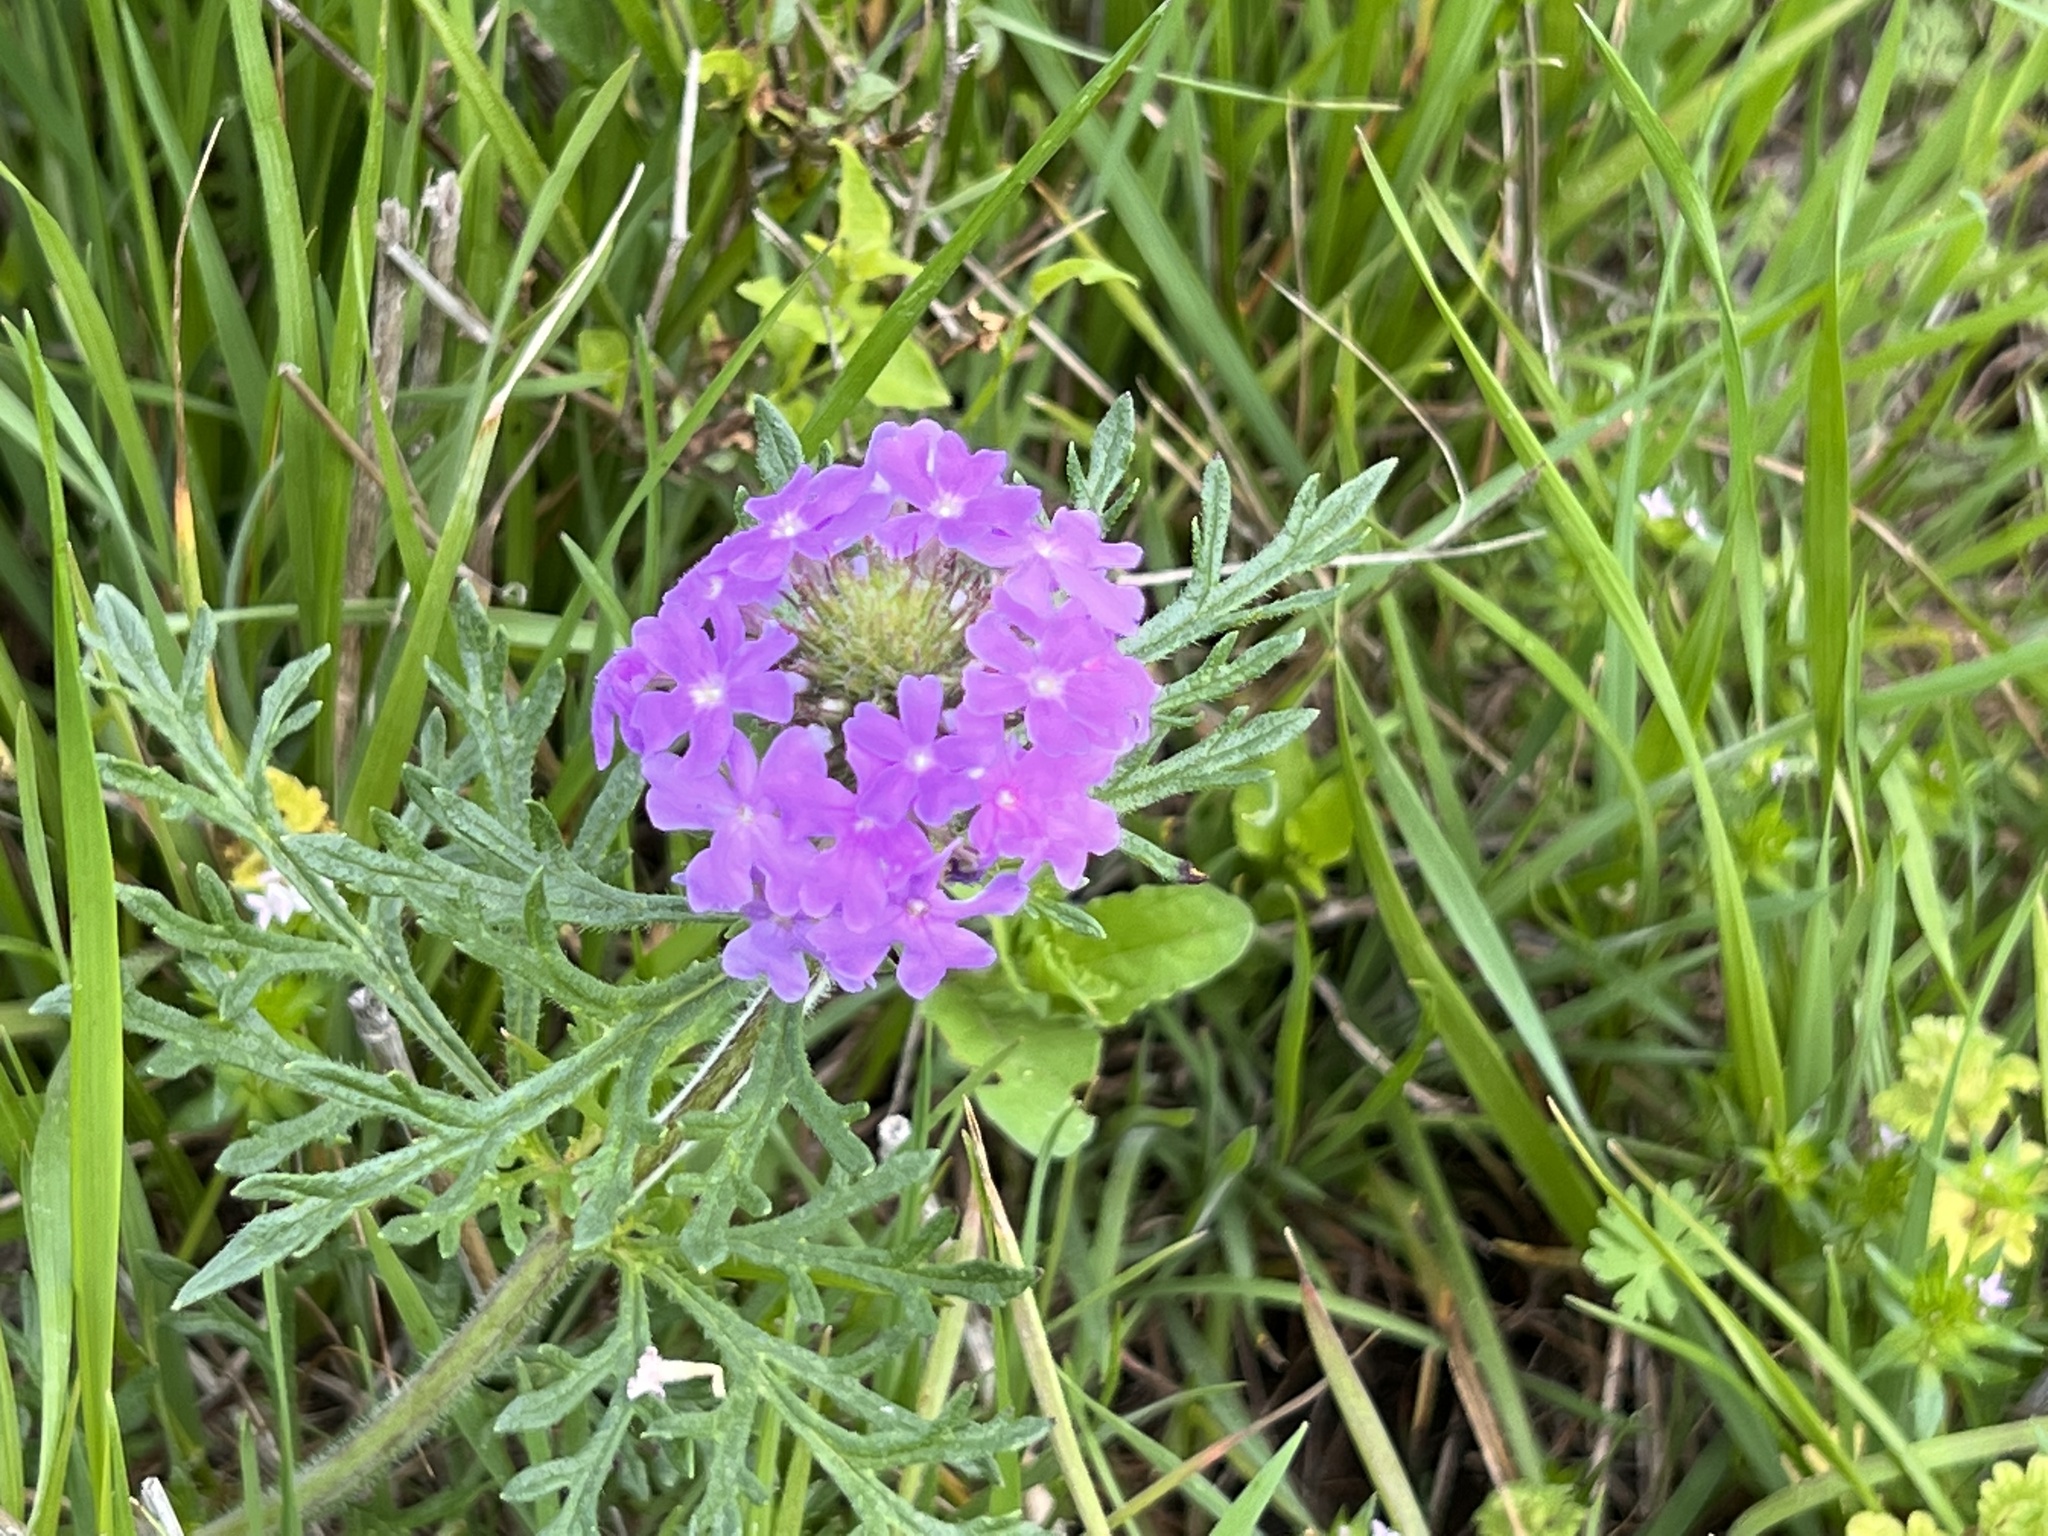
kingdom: Plantae
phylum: Tracheophyta
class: Magnoliopsida
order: Lamiales
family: Verbenaceae
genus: Verbena
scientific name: Verbena bipinnatifida
